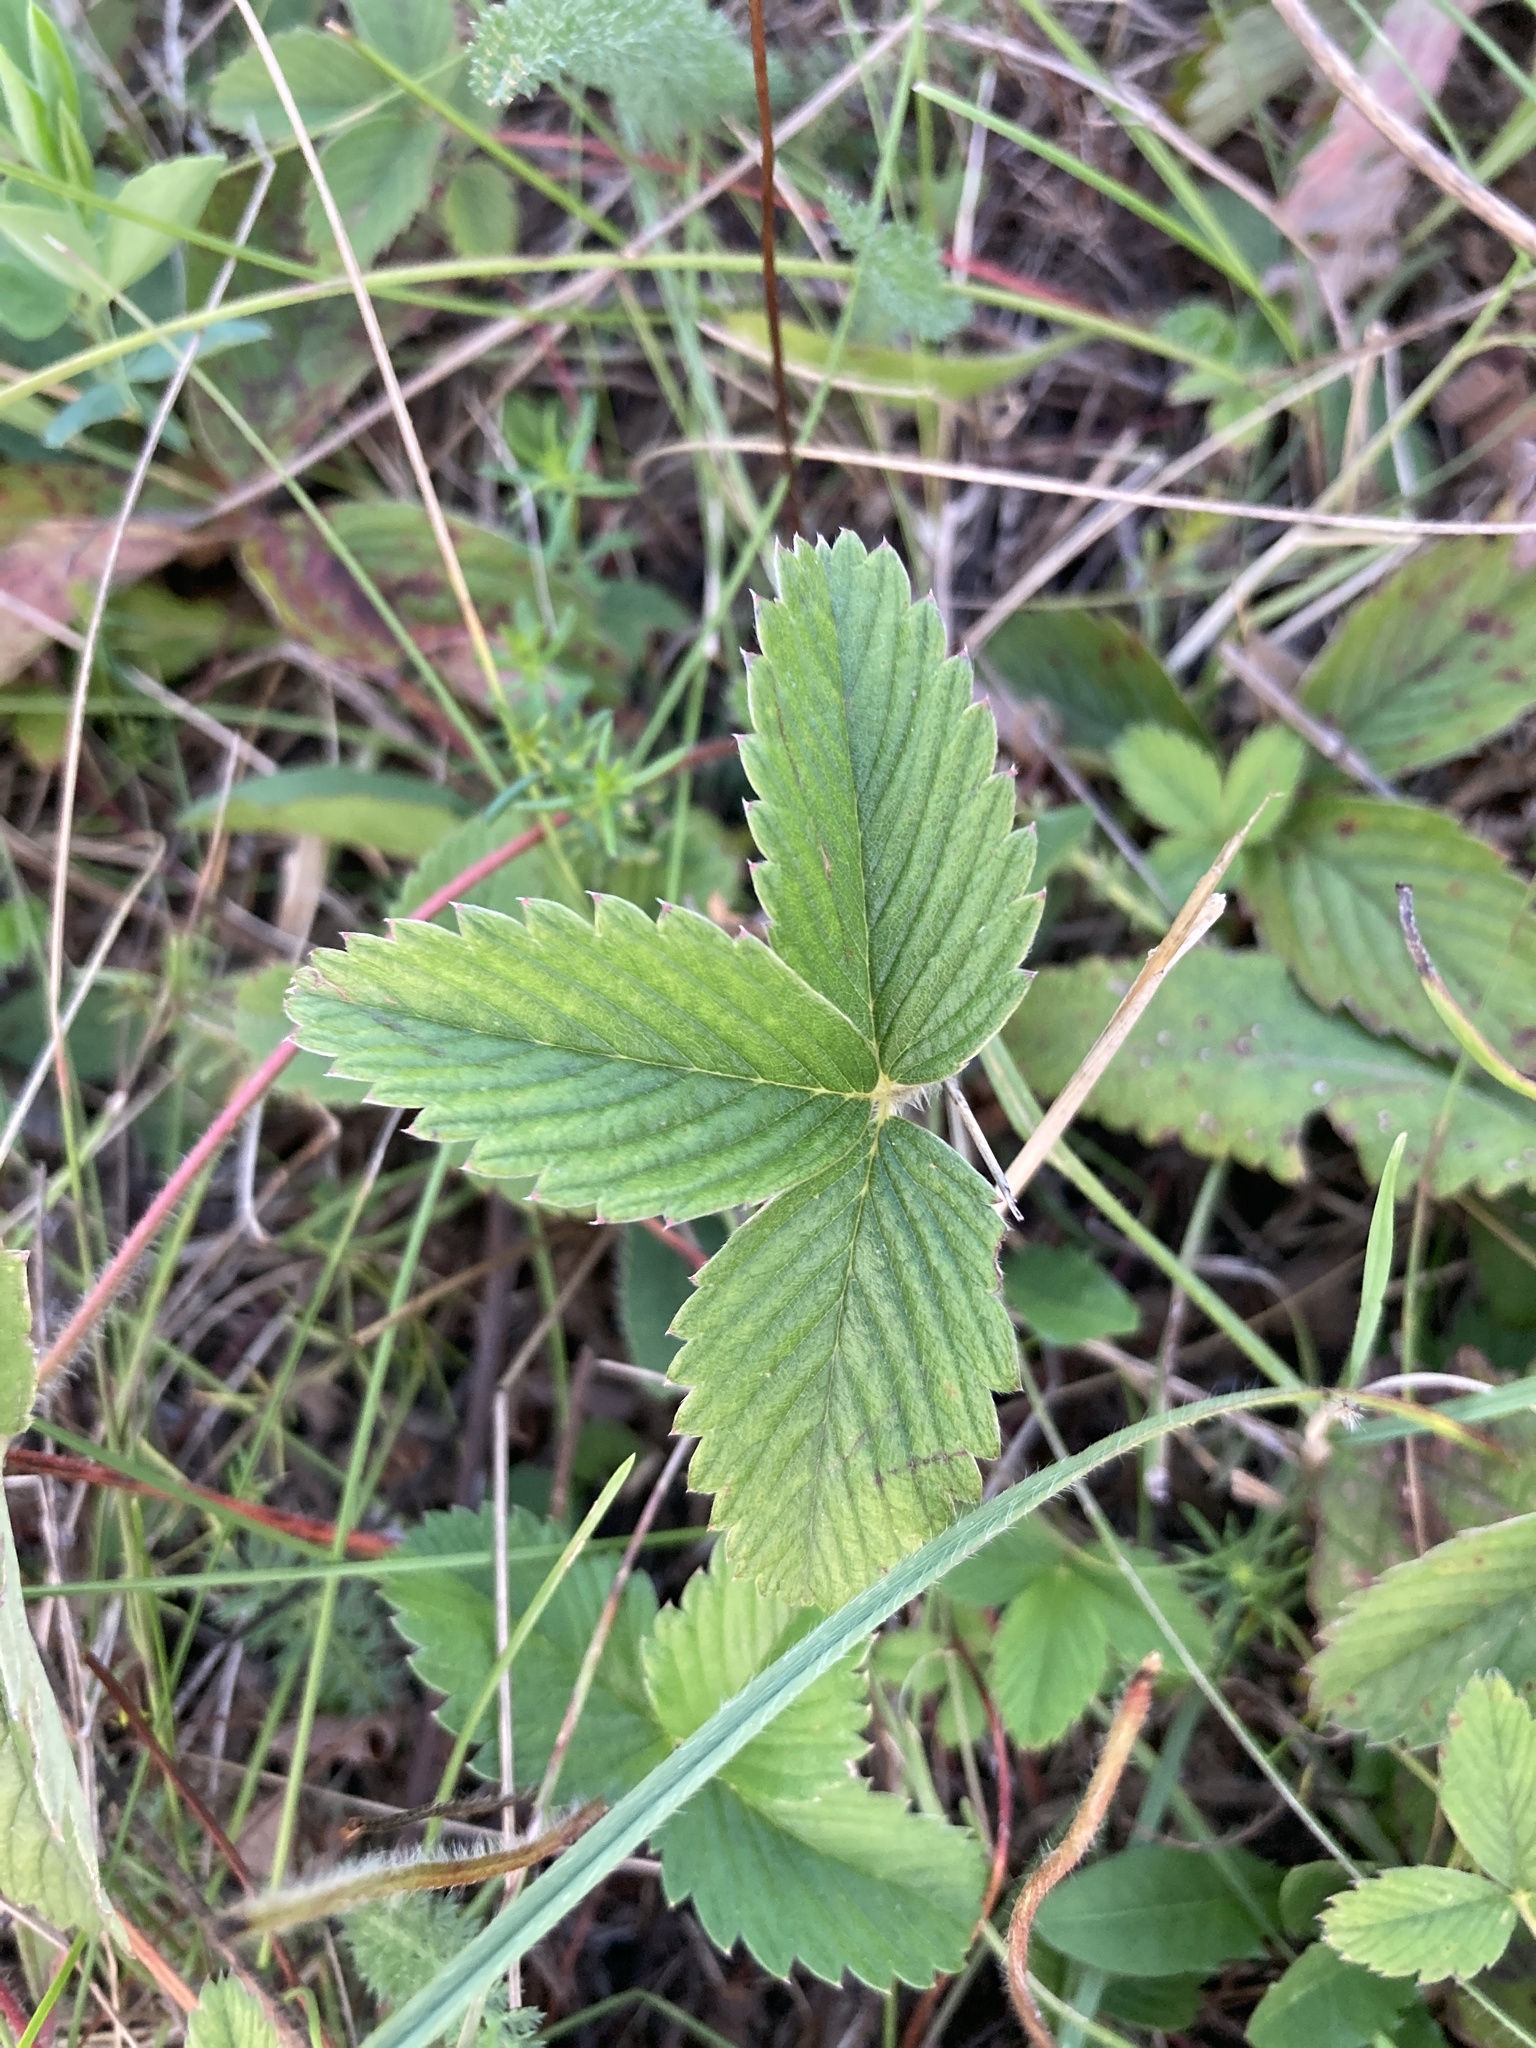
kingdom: Plantae
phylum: Tracheophyta
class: Magnoliopsida
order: Rosales
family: Rosaceae
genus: Fragaria
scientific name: Fragaria viridis
